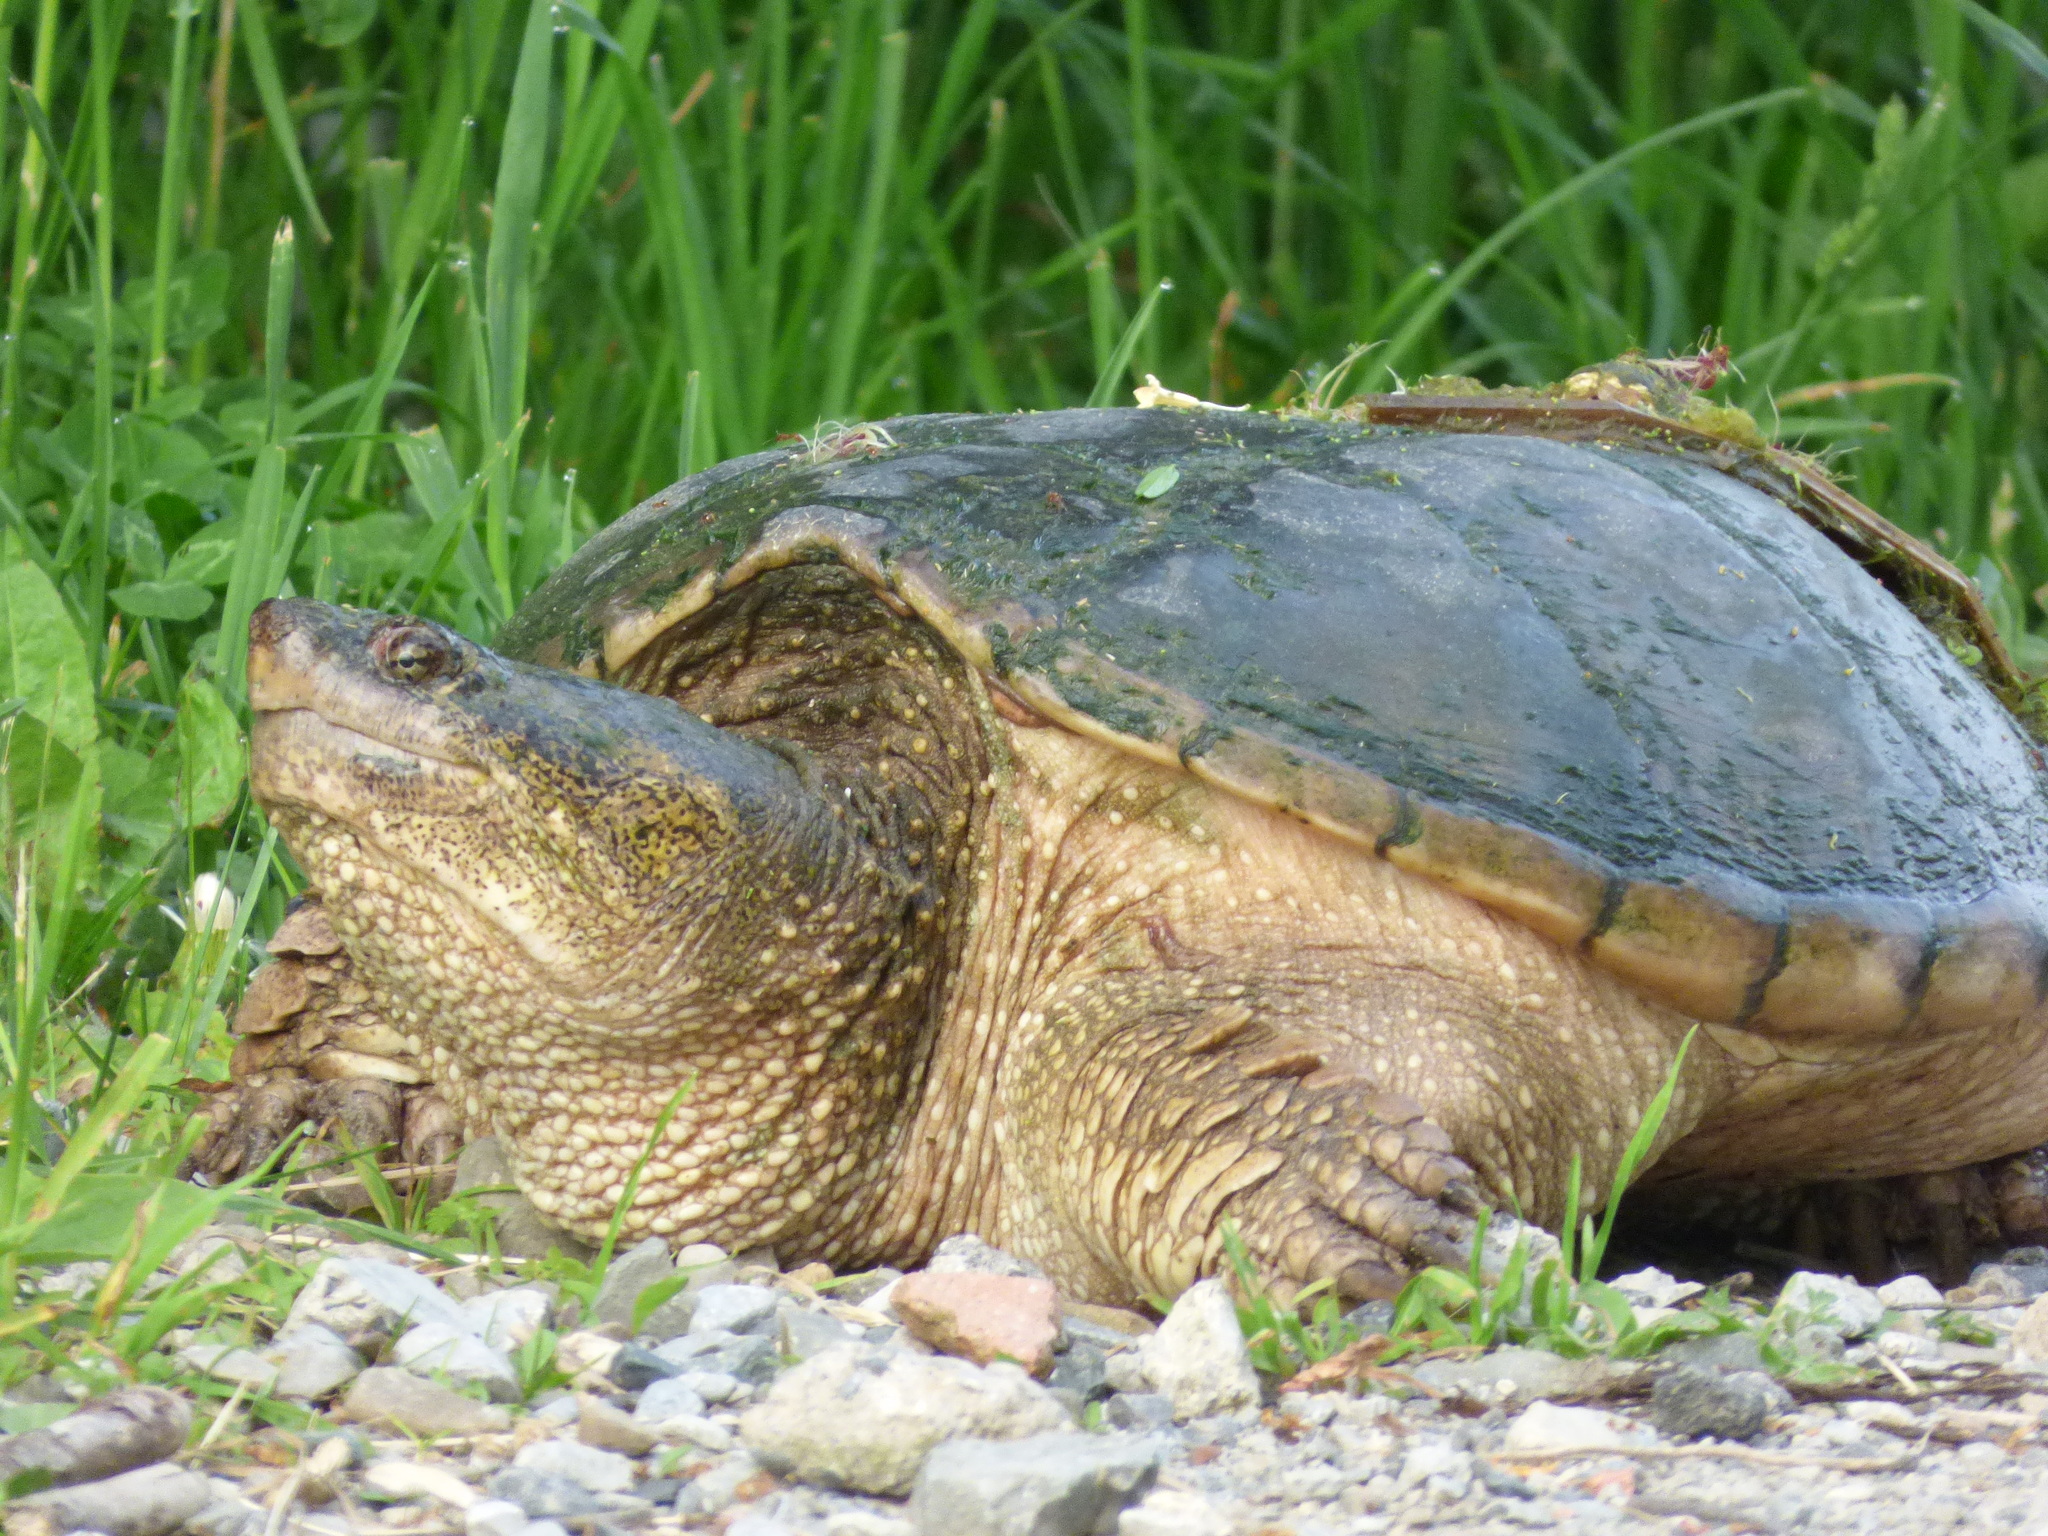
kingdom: Animalia
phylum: Chordata
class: Testudines
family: Chelydridae
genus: Chelydra
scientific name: Chelydra serpentina
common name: Common snapping turtle
